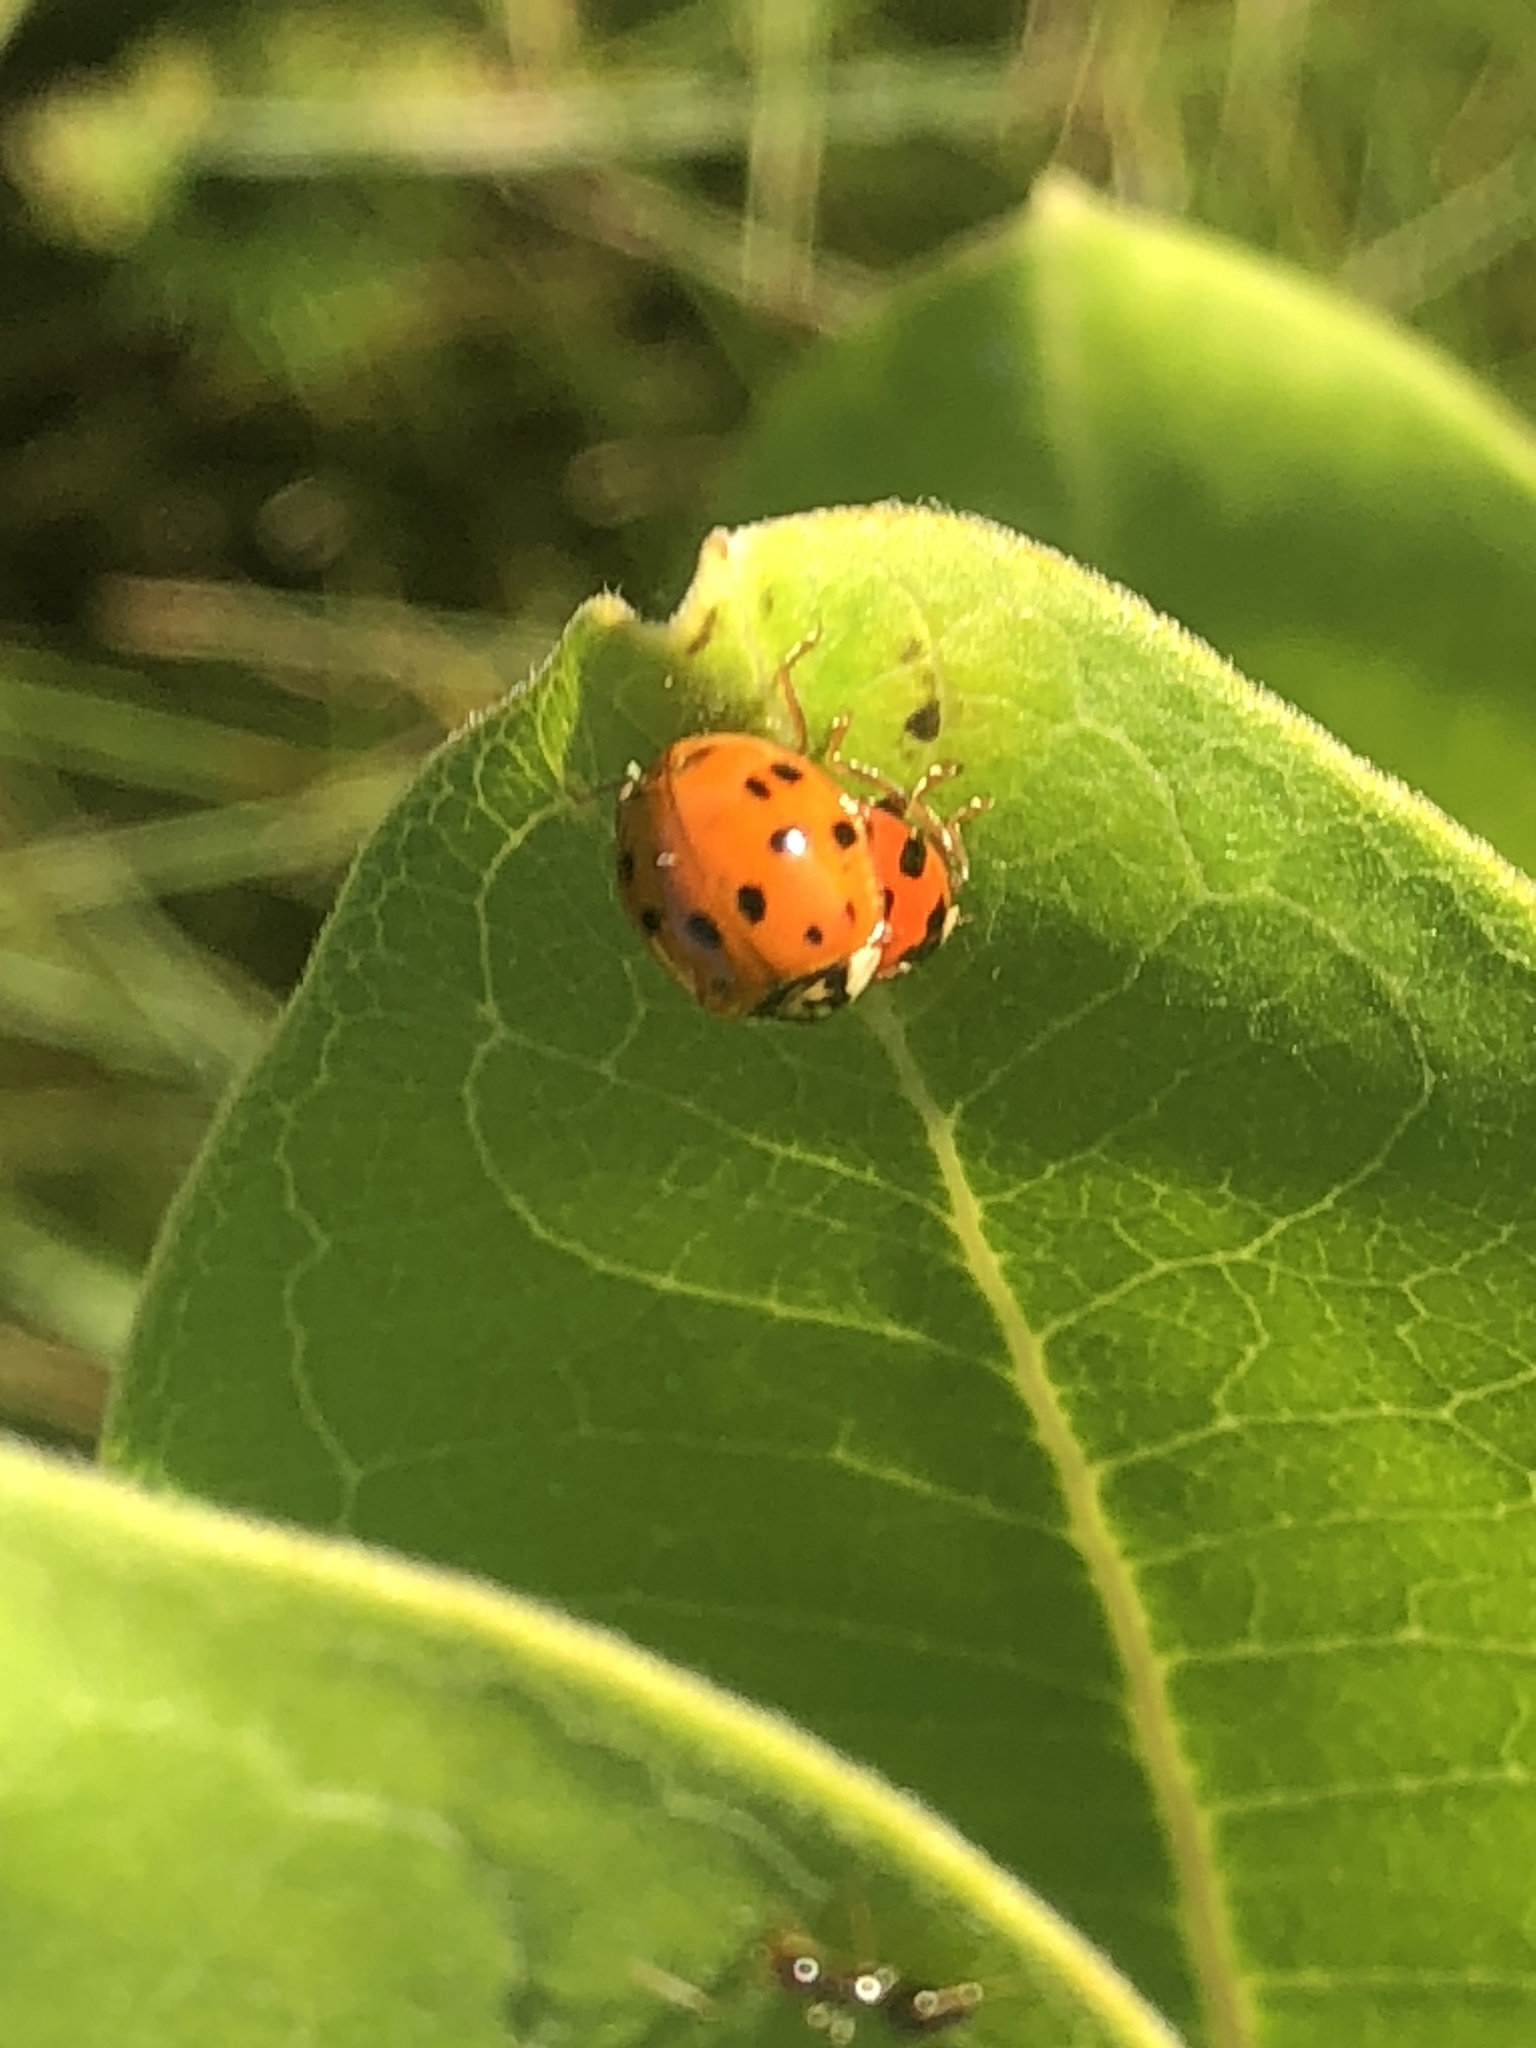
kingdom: Animalia
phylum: Arthropoda
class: Insecta
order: Coleoptera
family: Coccinellidae
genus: Harmonia
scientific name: Harmonia axyridis
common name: Harlequin ladybird
